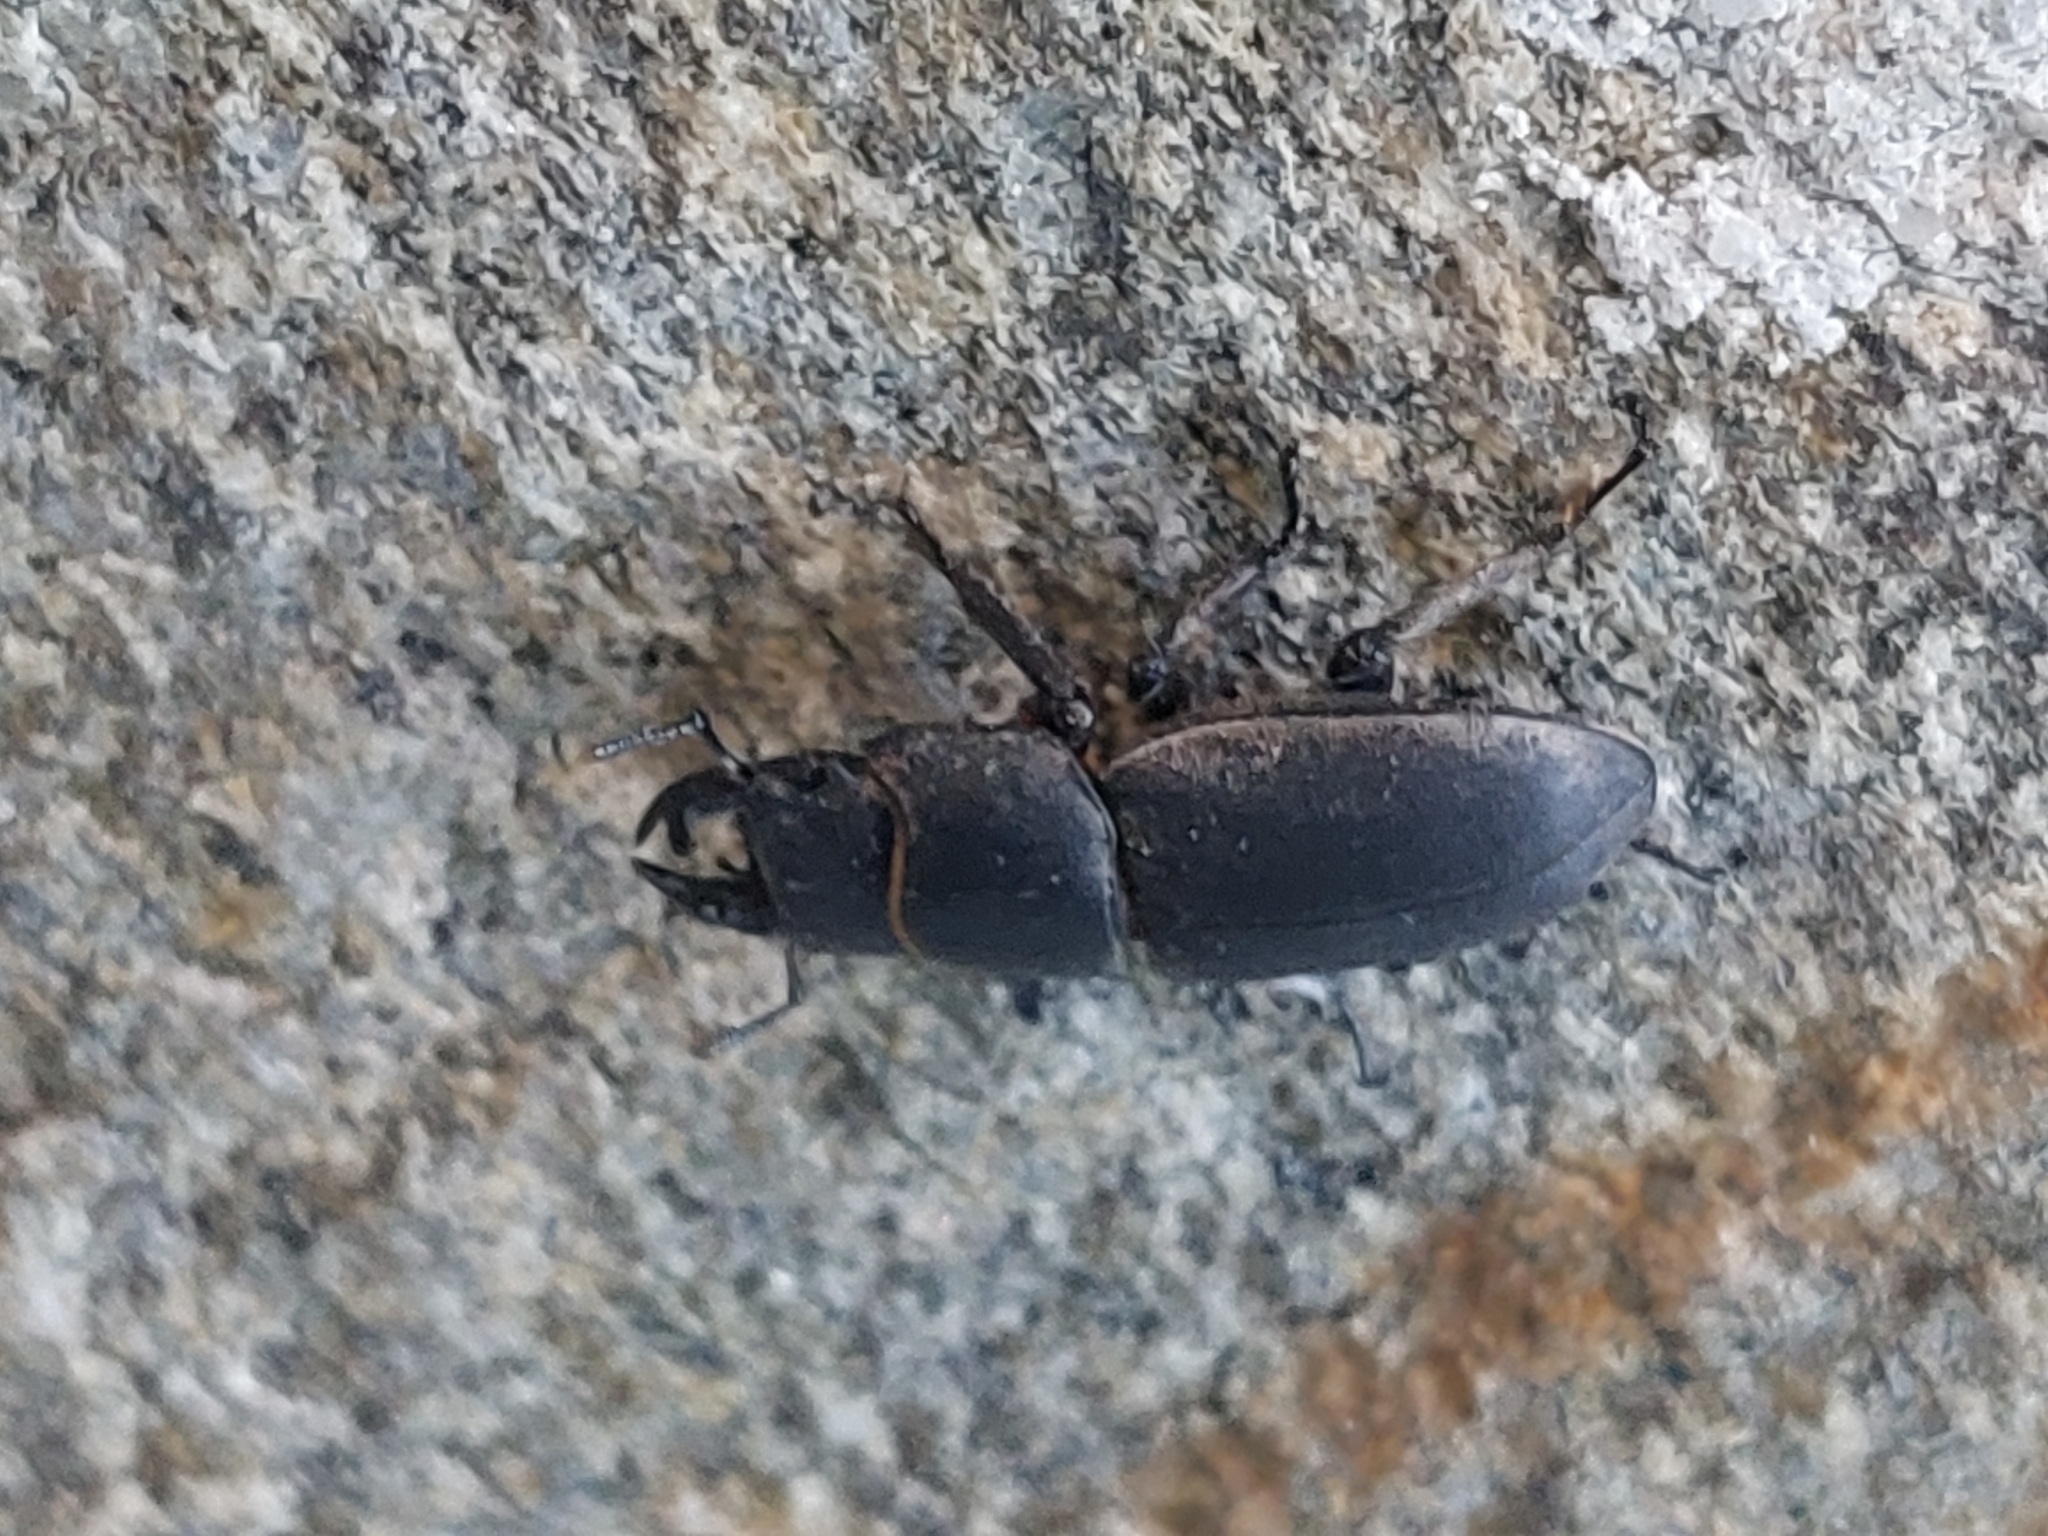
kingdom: Animalia
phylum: Arthropoda
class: Insecta
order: Coleoptera
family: Lucanidae
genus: Dorcus
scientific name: Dorcus parallelipipedus
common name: Lesser stag beetle
